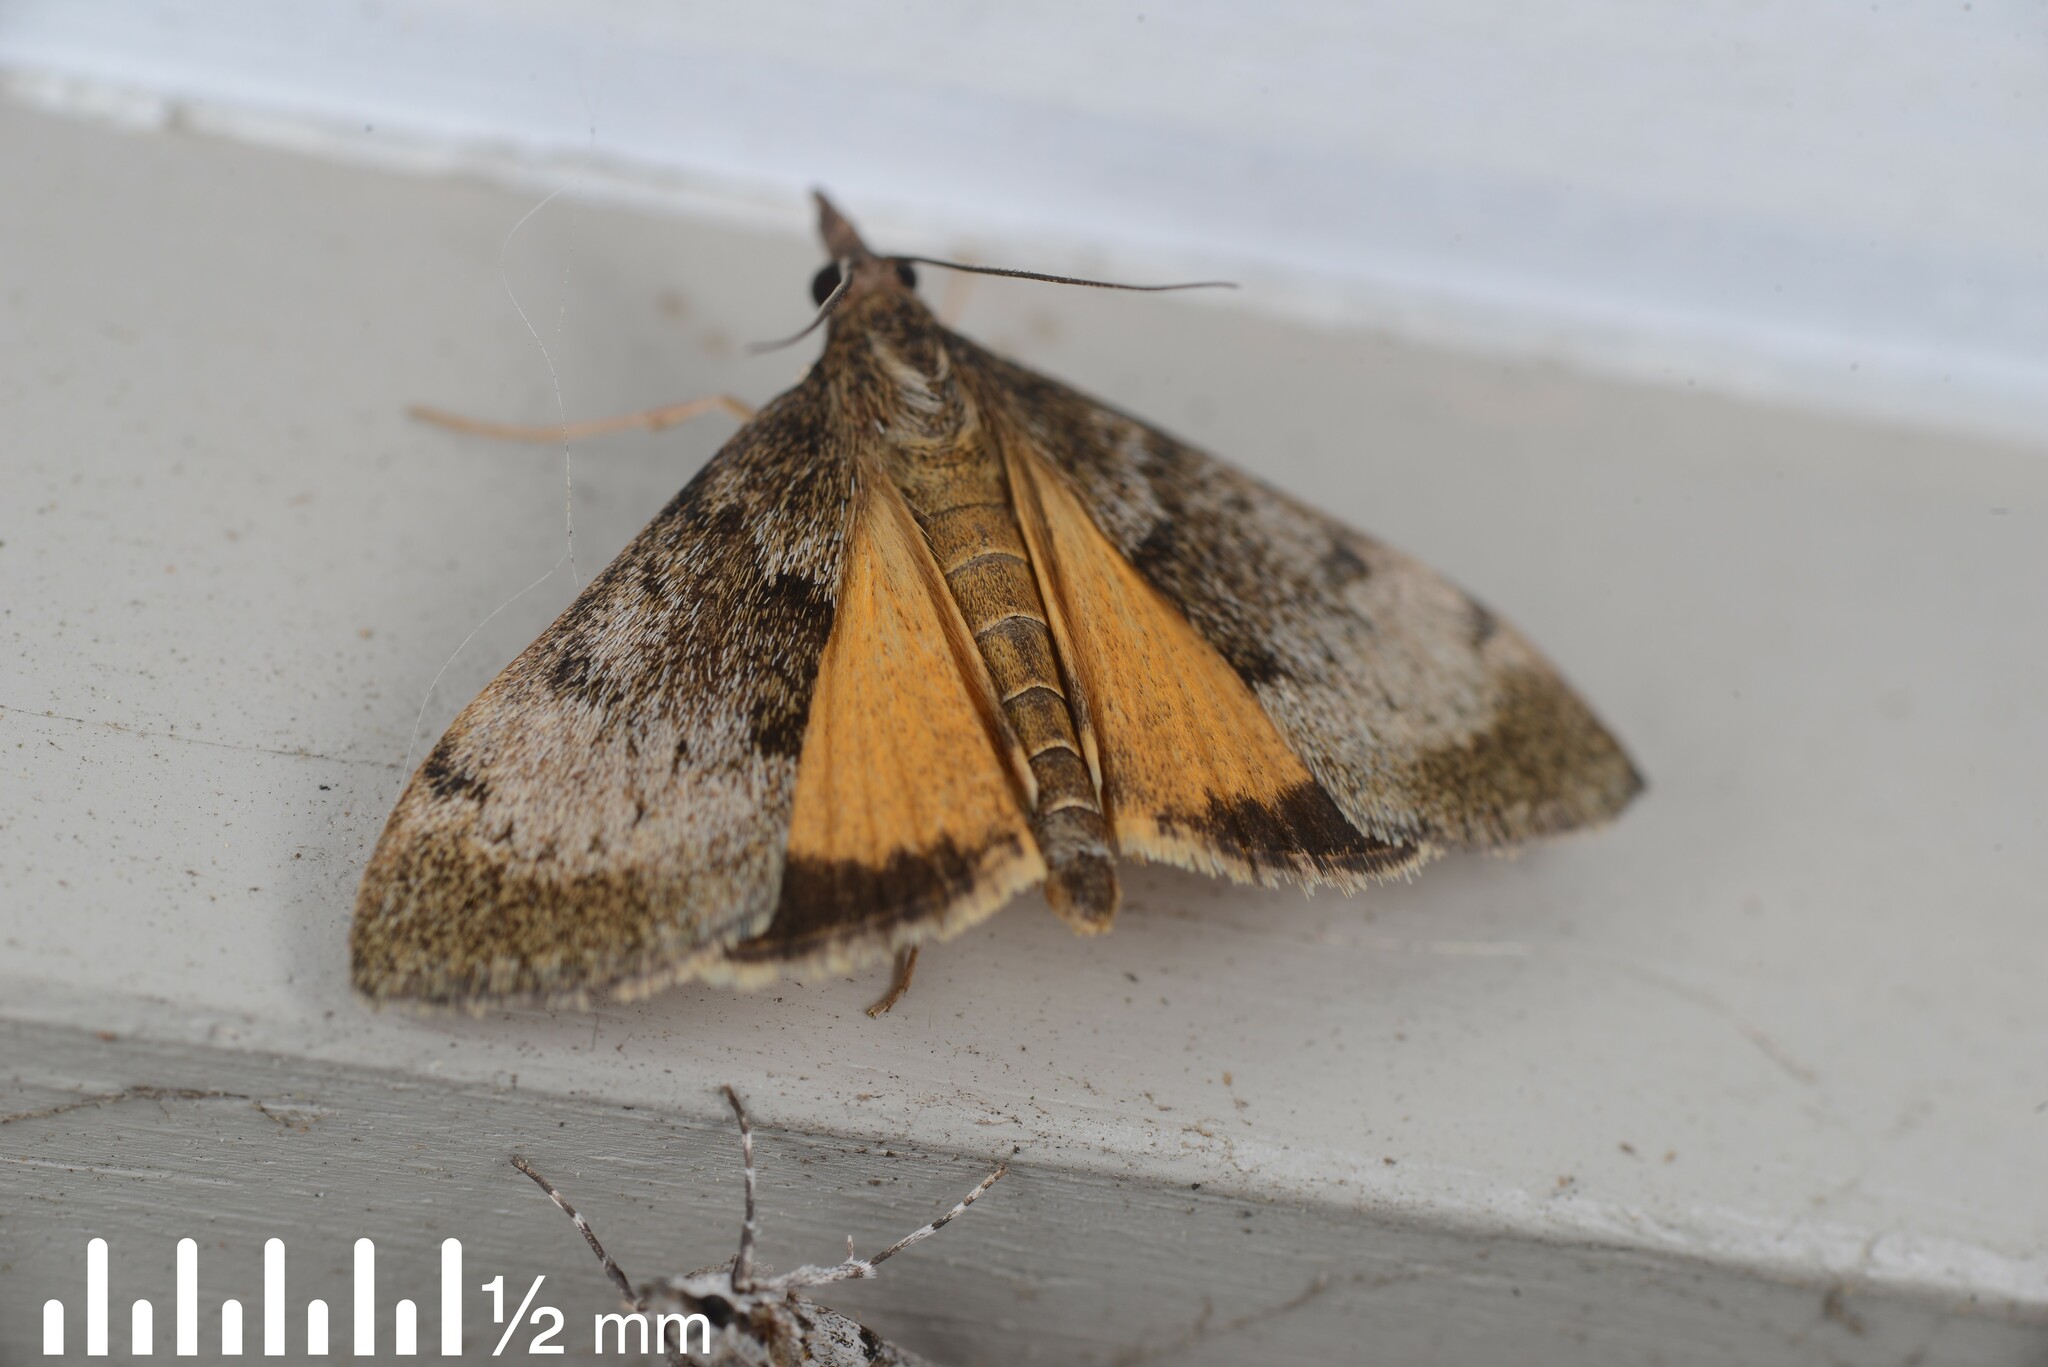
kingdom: Animalia
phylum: Arthropoda
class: Insecta
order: Lepidoptera
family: Crambidae
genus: Uresiphita
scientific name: Uresiphita
